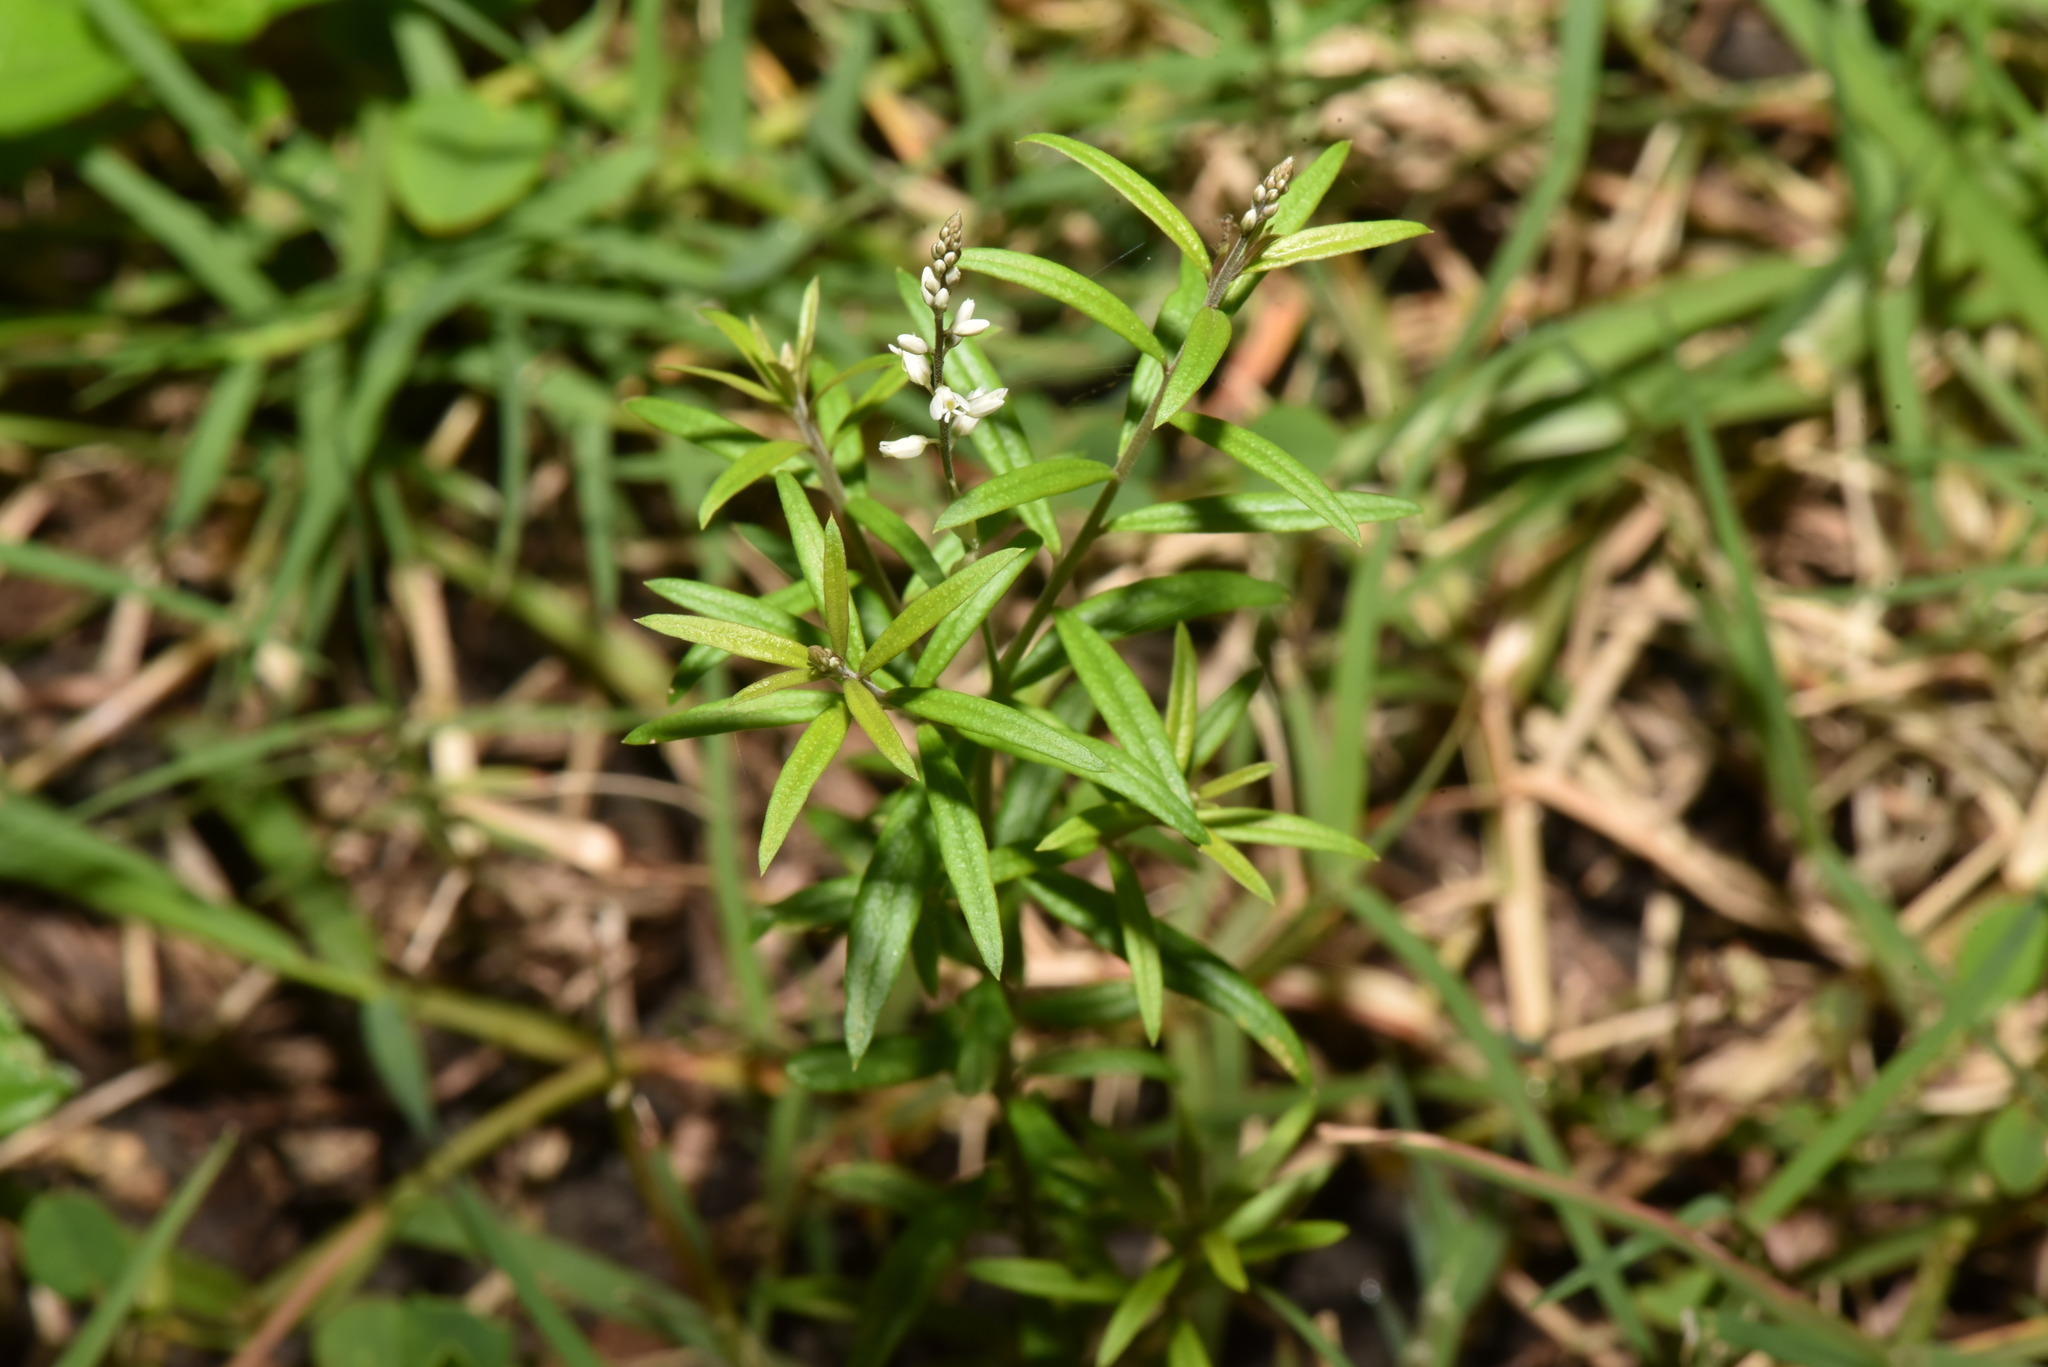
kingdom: Plantae
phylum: Tracheophyta
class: Magnoliopsida
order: Fabales
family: Polygalaceae
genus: Polygala
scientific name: Polygala paniculata
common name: Orosne
